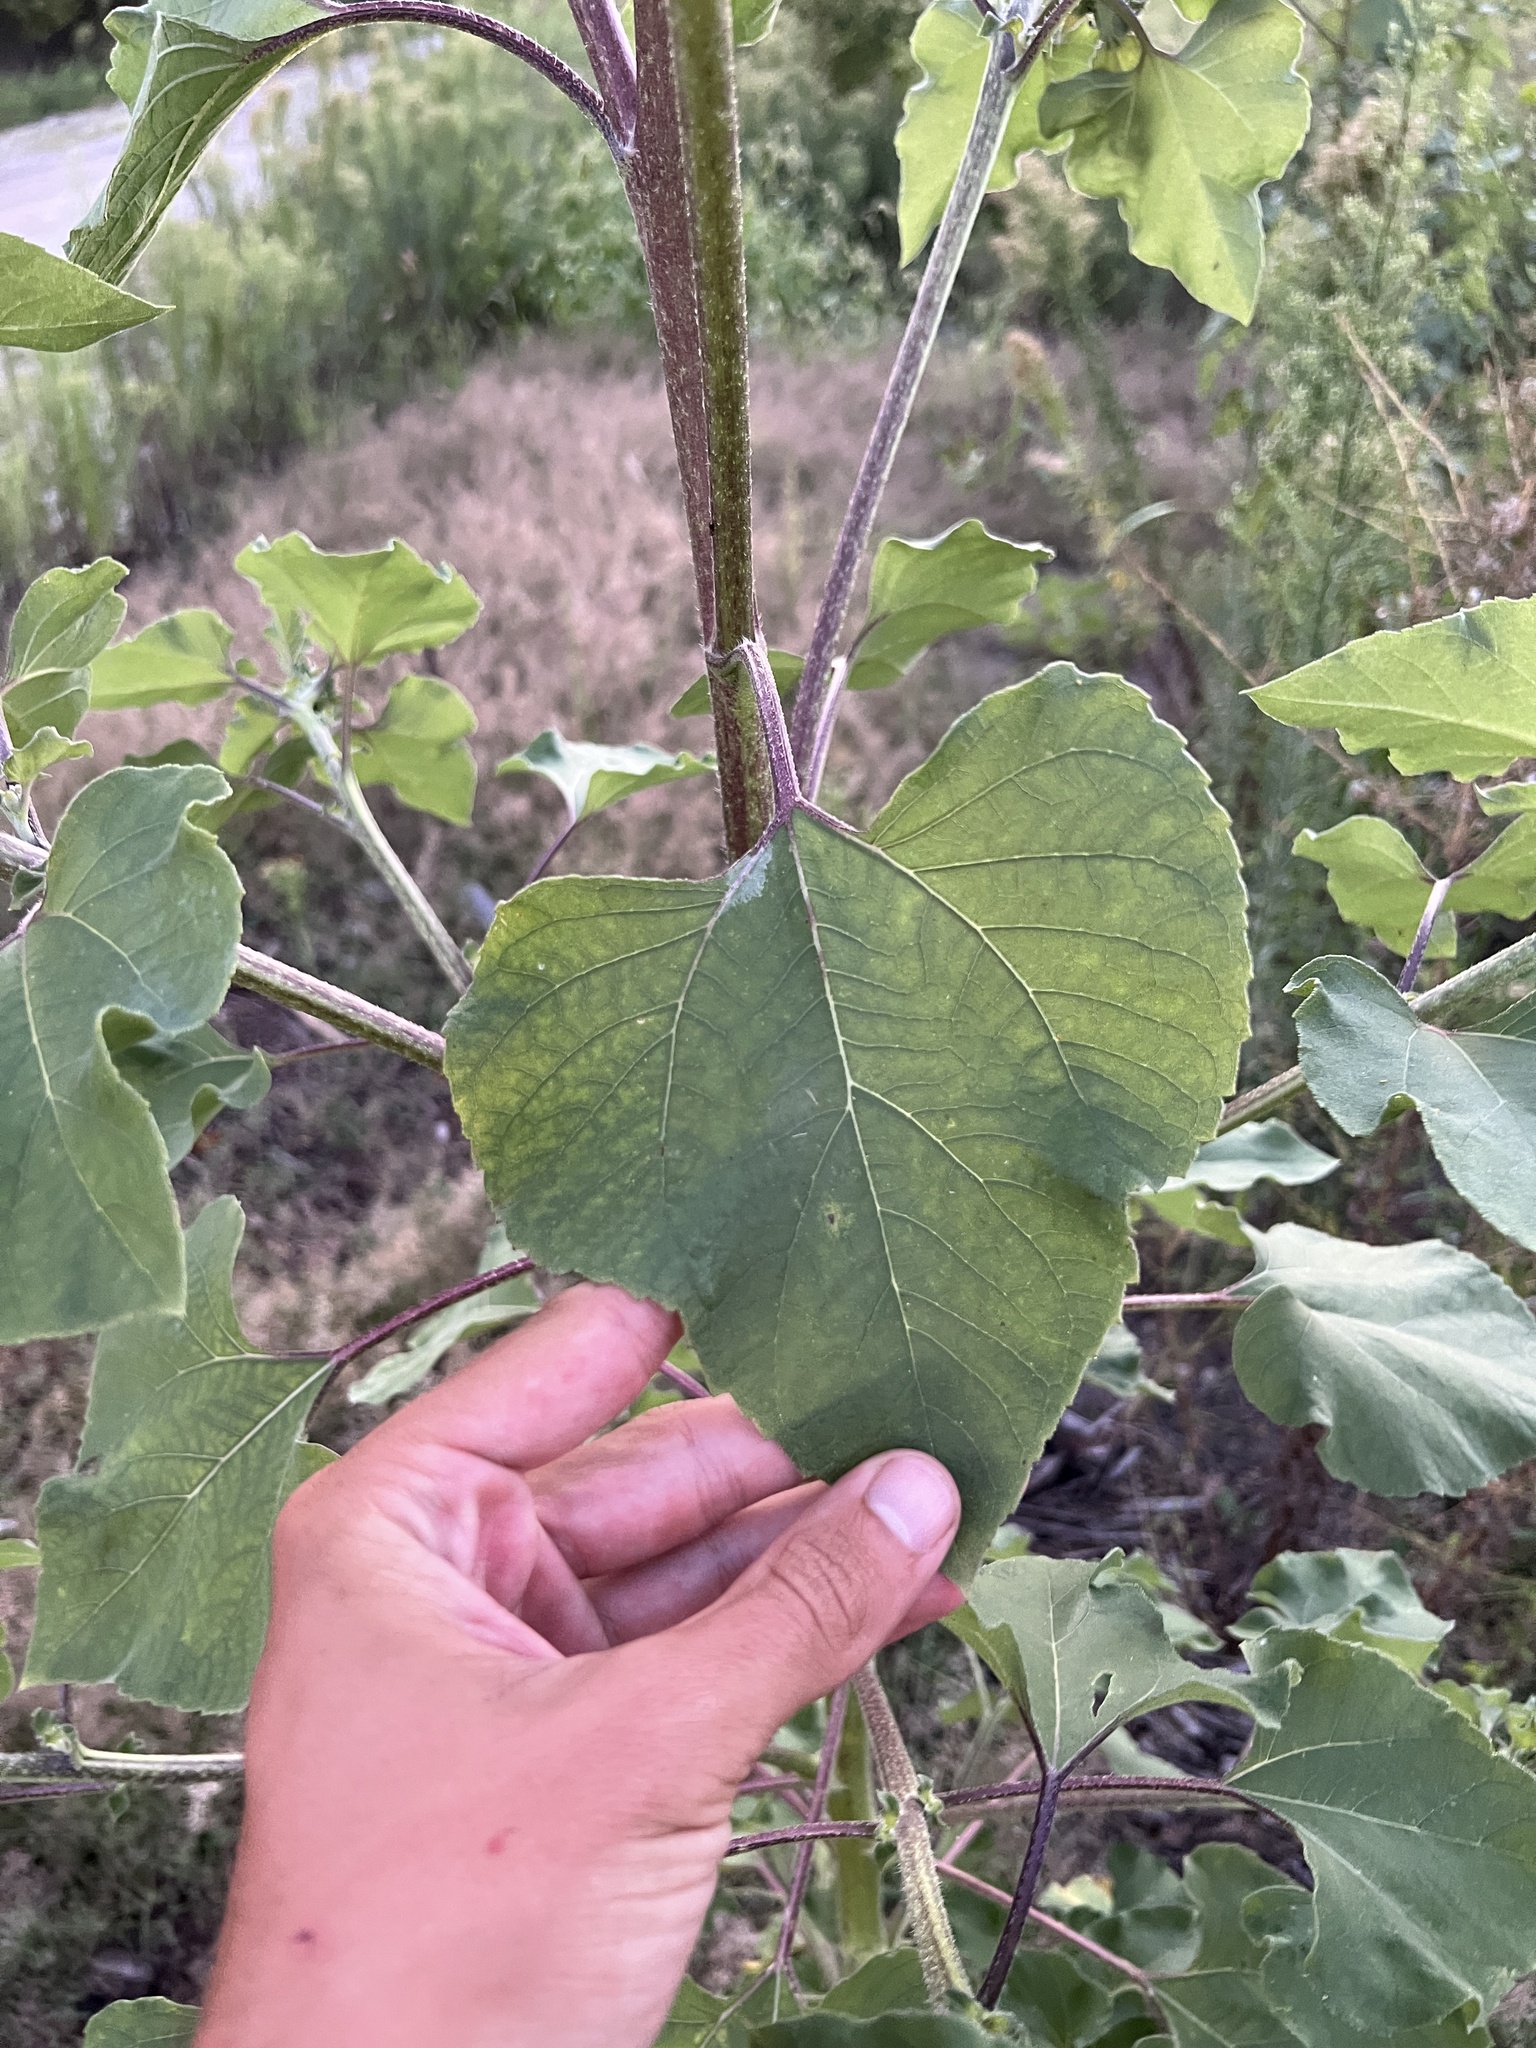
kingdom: Plantae
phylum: Tracheophyta
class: Magnoliopsida
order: Asterales
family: Asteraceae
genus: Helianthus
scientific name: Helianthus annuus
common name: Sunflower
